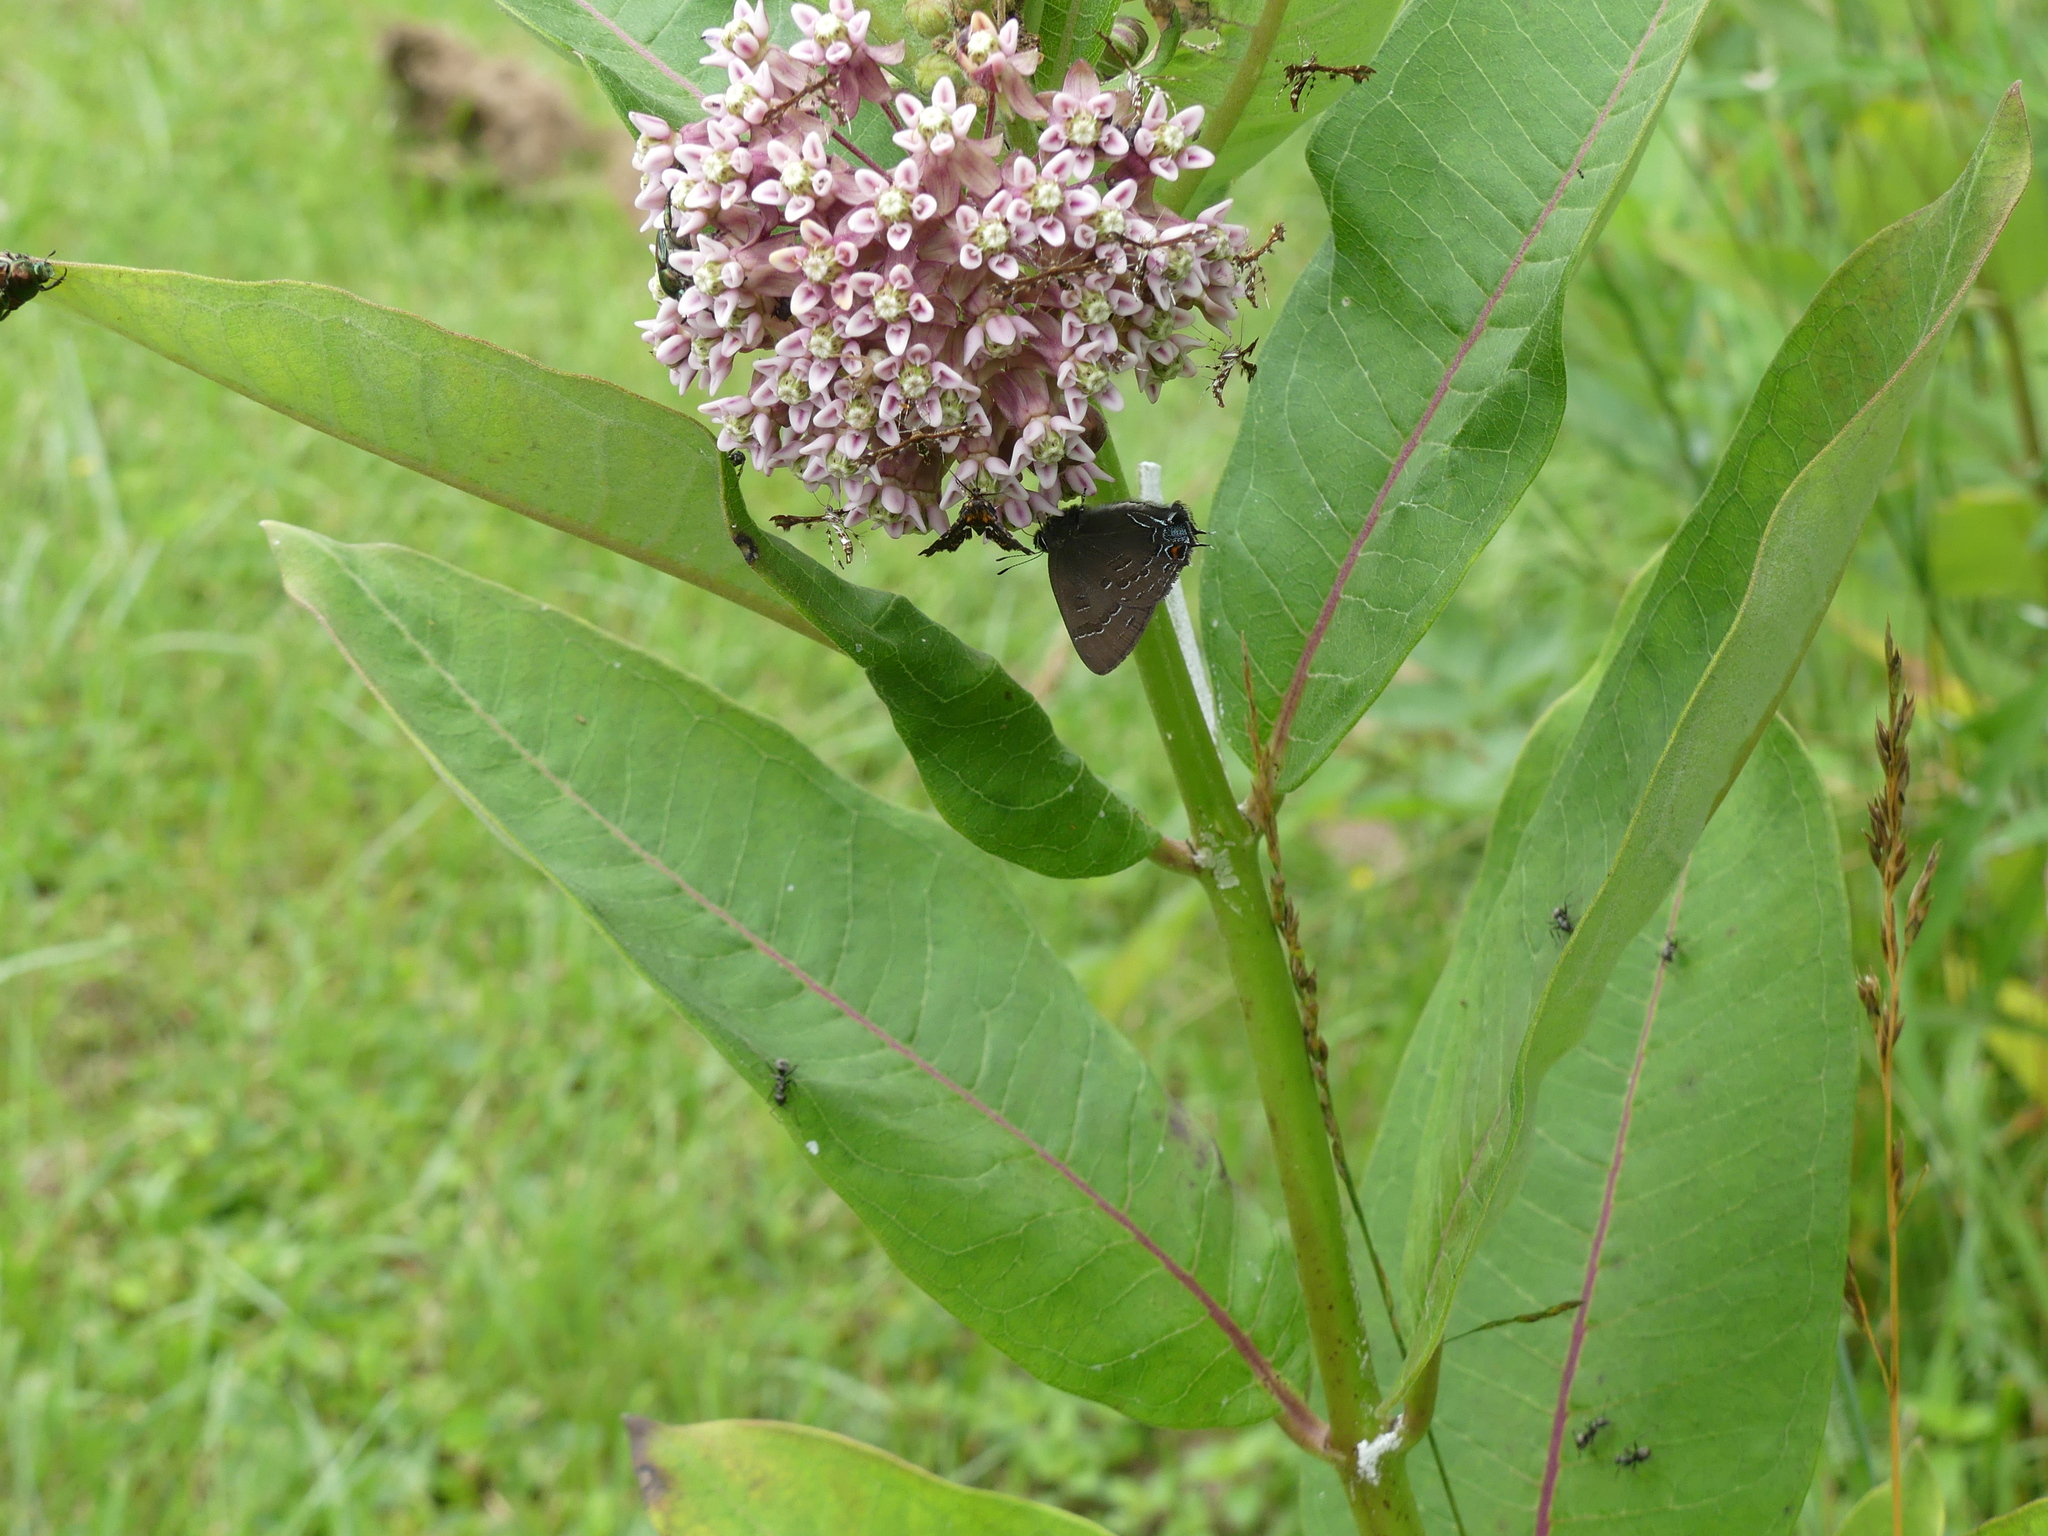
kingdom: Plantae
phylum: Tracheophyta
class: Magnoliopsida
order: Gentianales
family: Apocynaceae
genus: Asclepias
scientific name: Asclepias syriaca
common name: Common milkweed
